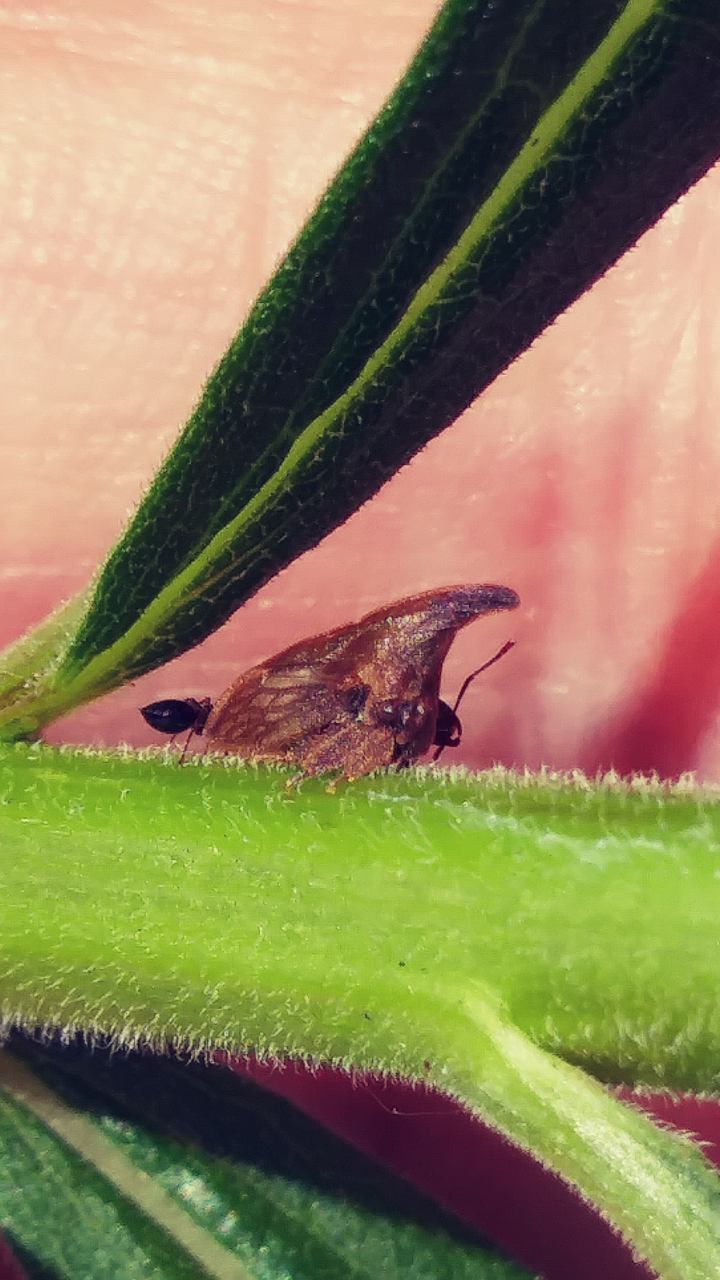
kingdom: Animalia
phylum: Arthropoda
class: Insecta
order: Hemiptera
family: Membracidae
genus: Enchenopa
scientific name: Enchenopa latipes
